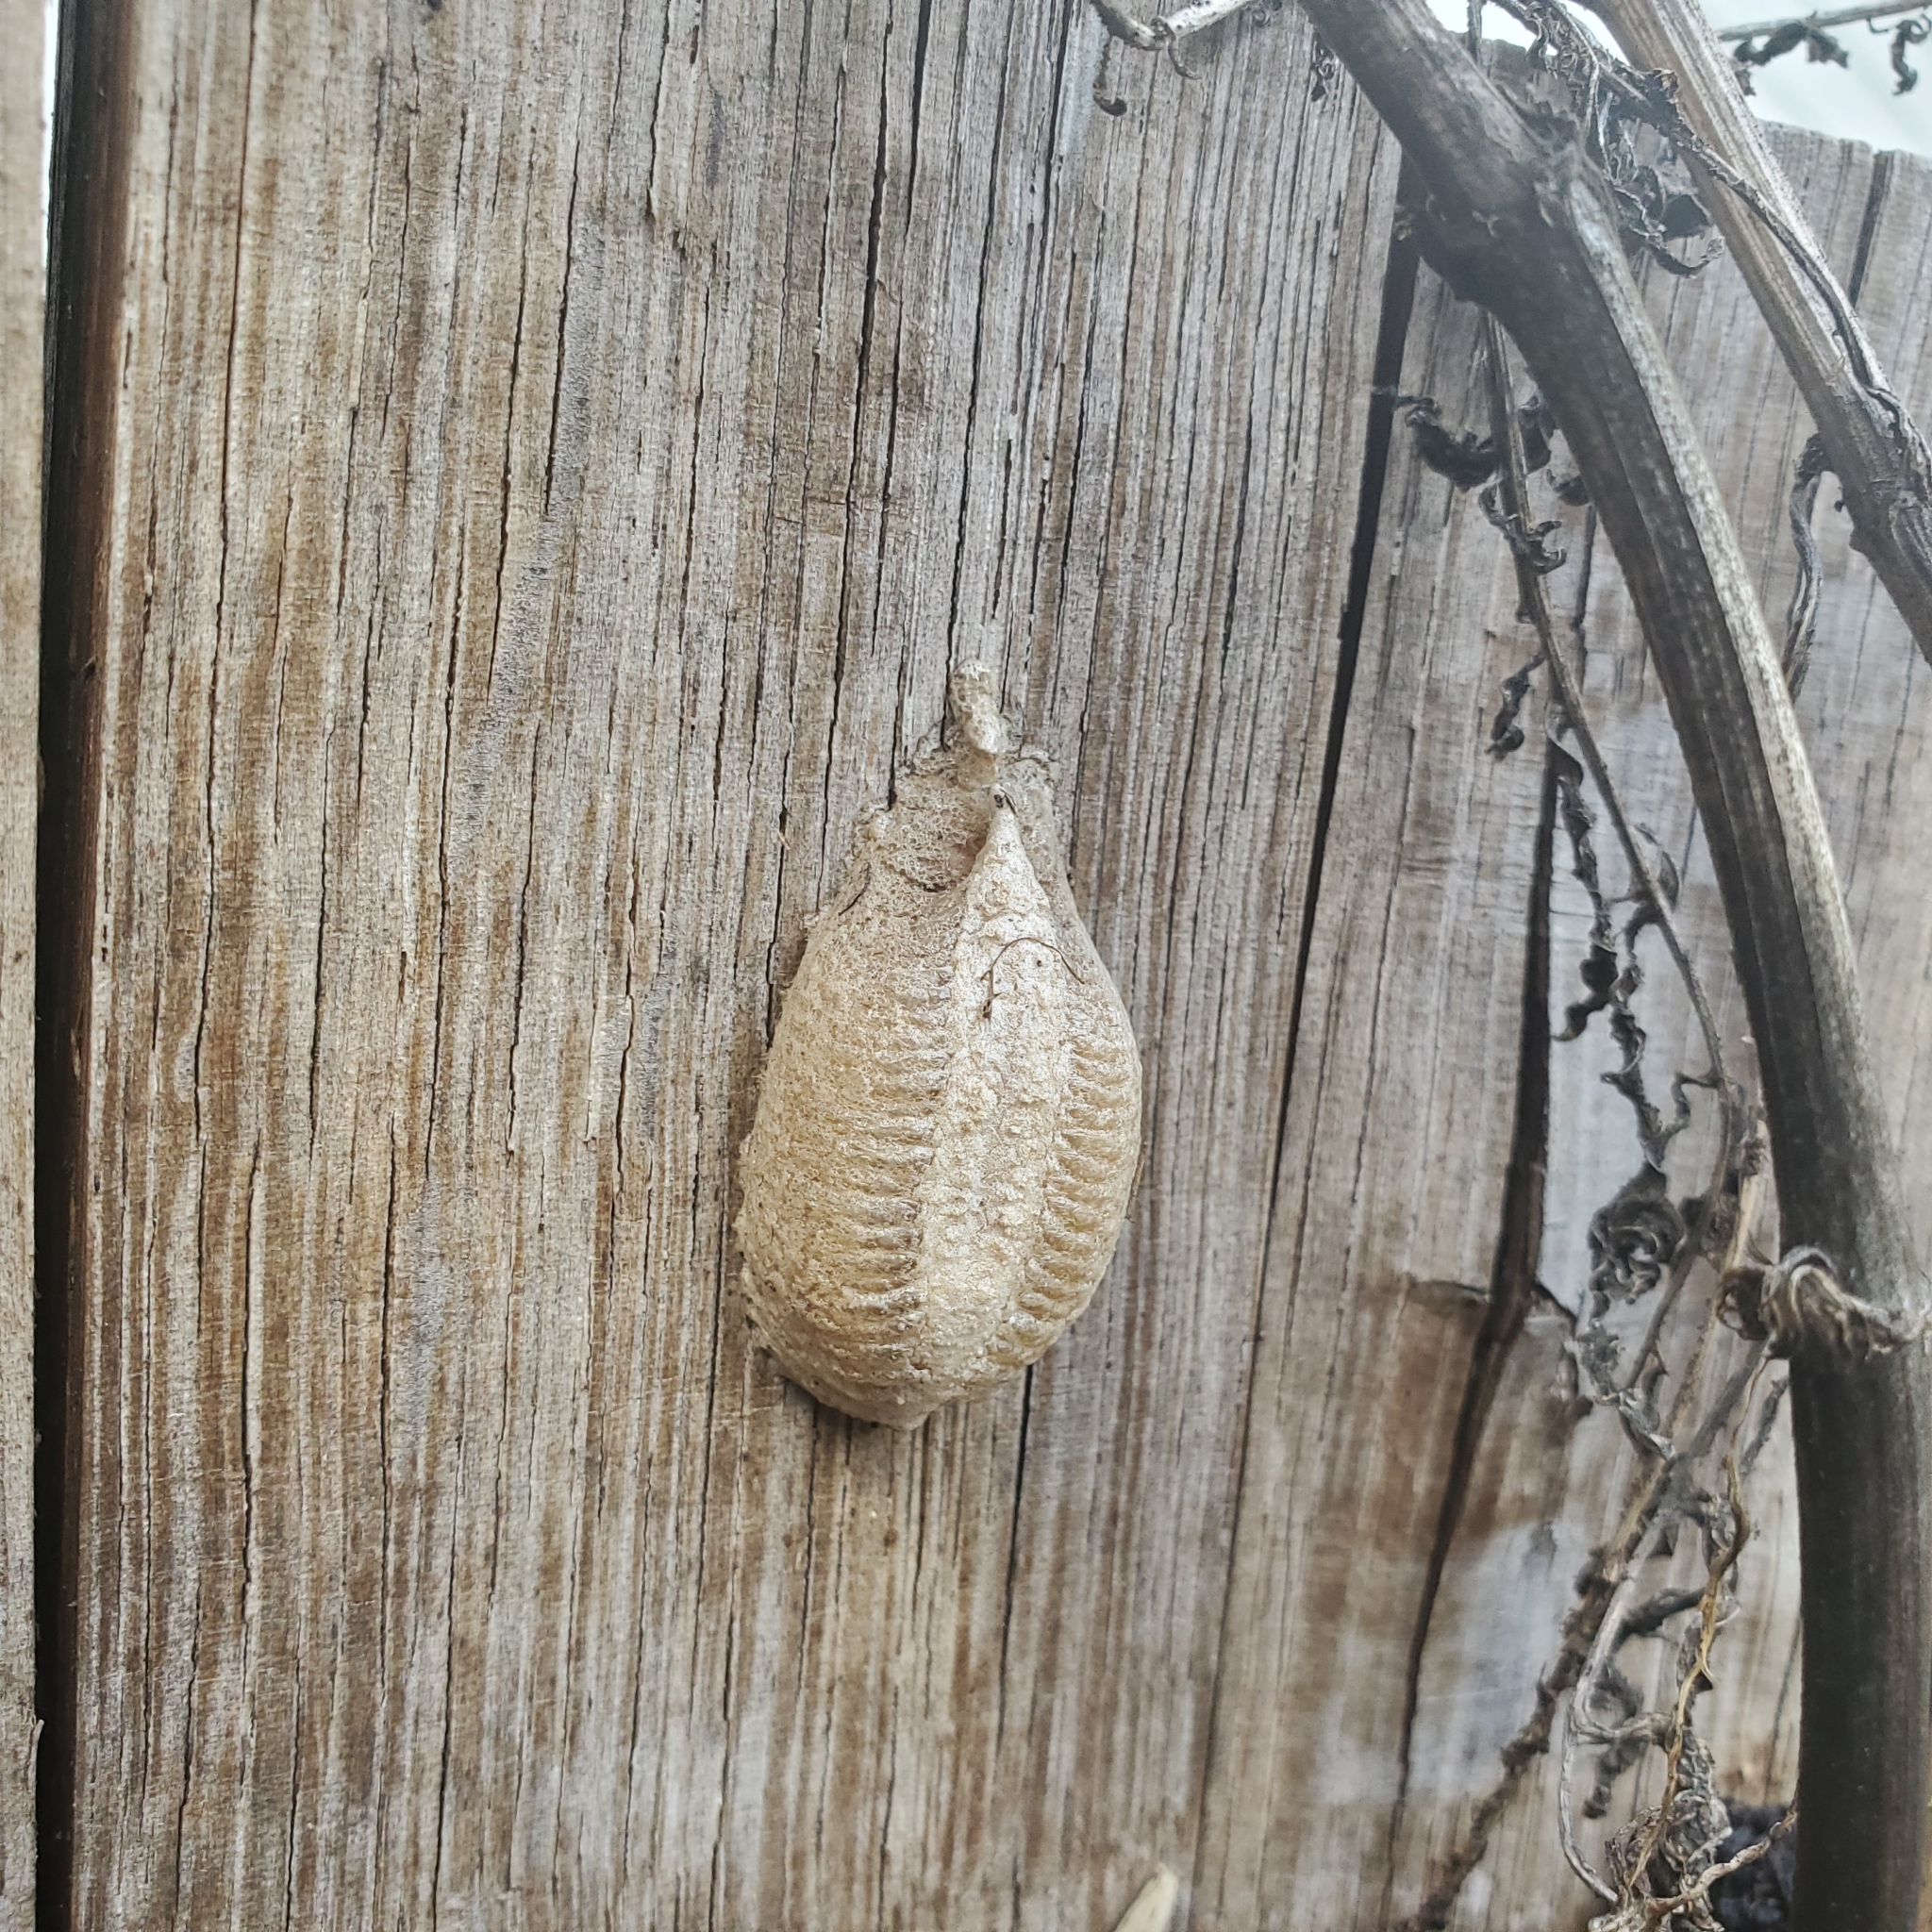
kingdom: Animalia
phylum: Arthropoda
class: Insecta
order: Mantodea
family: Mantidae
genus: Mantis
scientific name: Mantis religiosa
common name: Praying mantis
